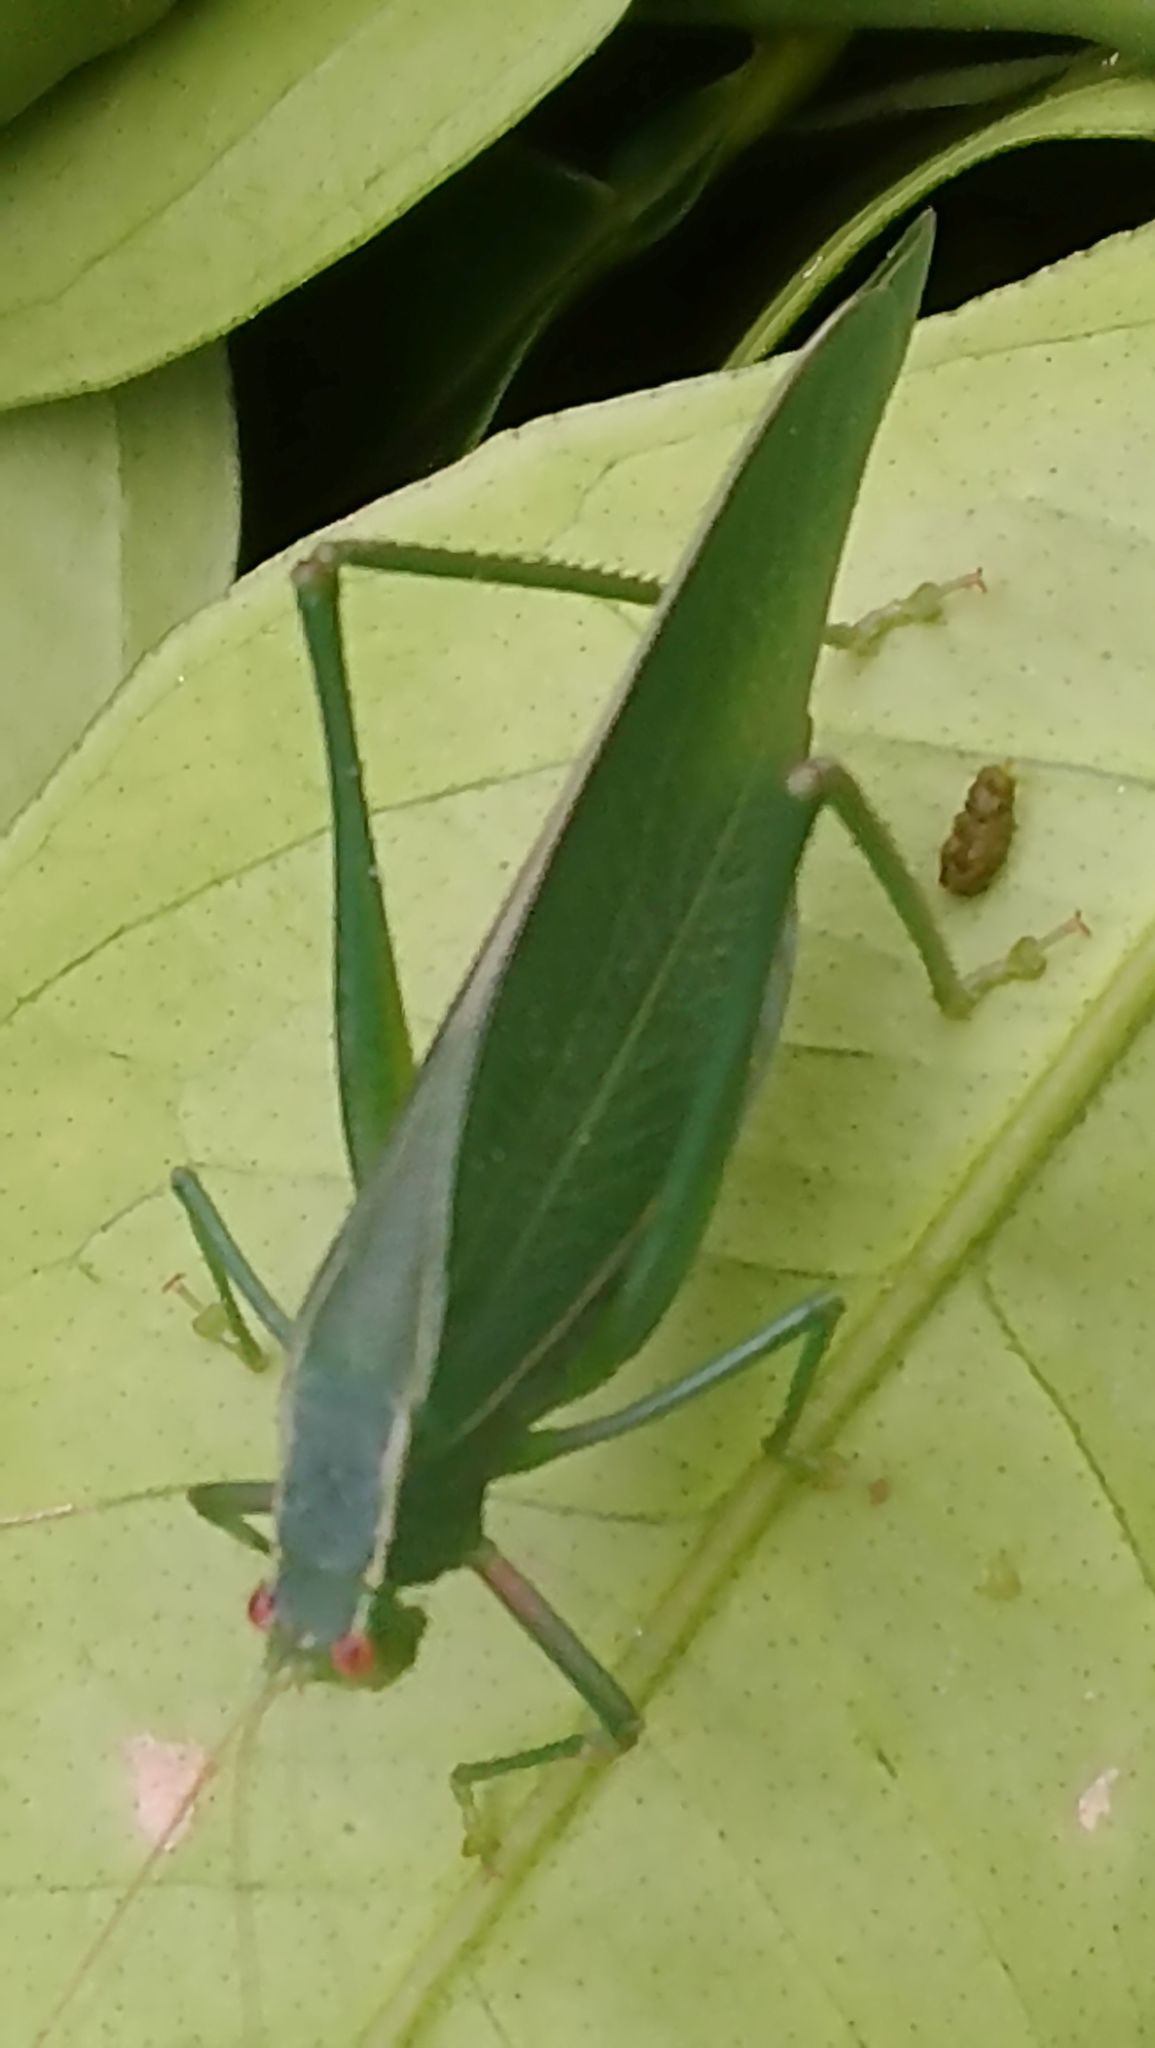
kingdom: Animalia
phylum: Arthropoda
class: Insecta
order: Orthoptera
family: Tettigoniidae
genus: Caedicia
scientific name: Caedicia simplex
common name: Common garden katydid
